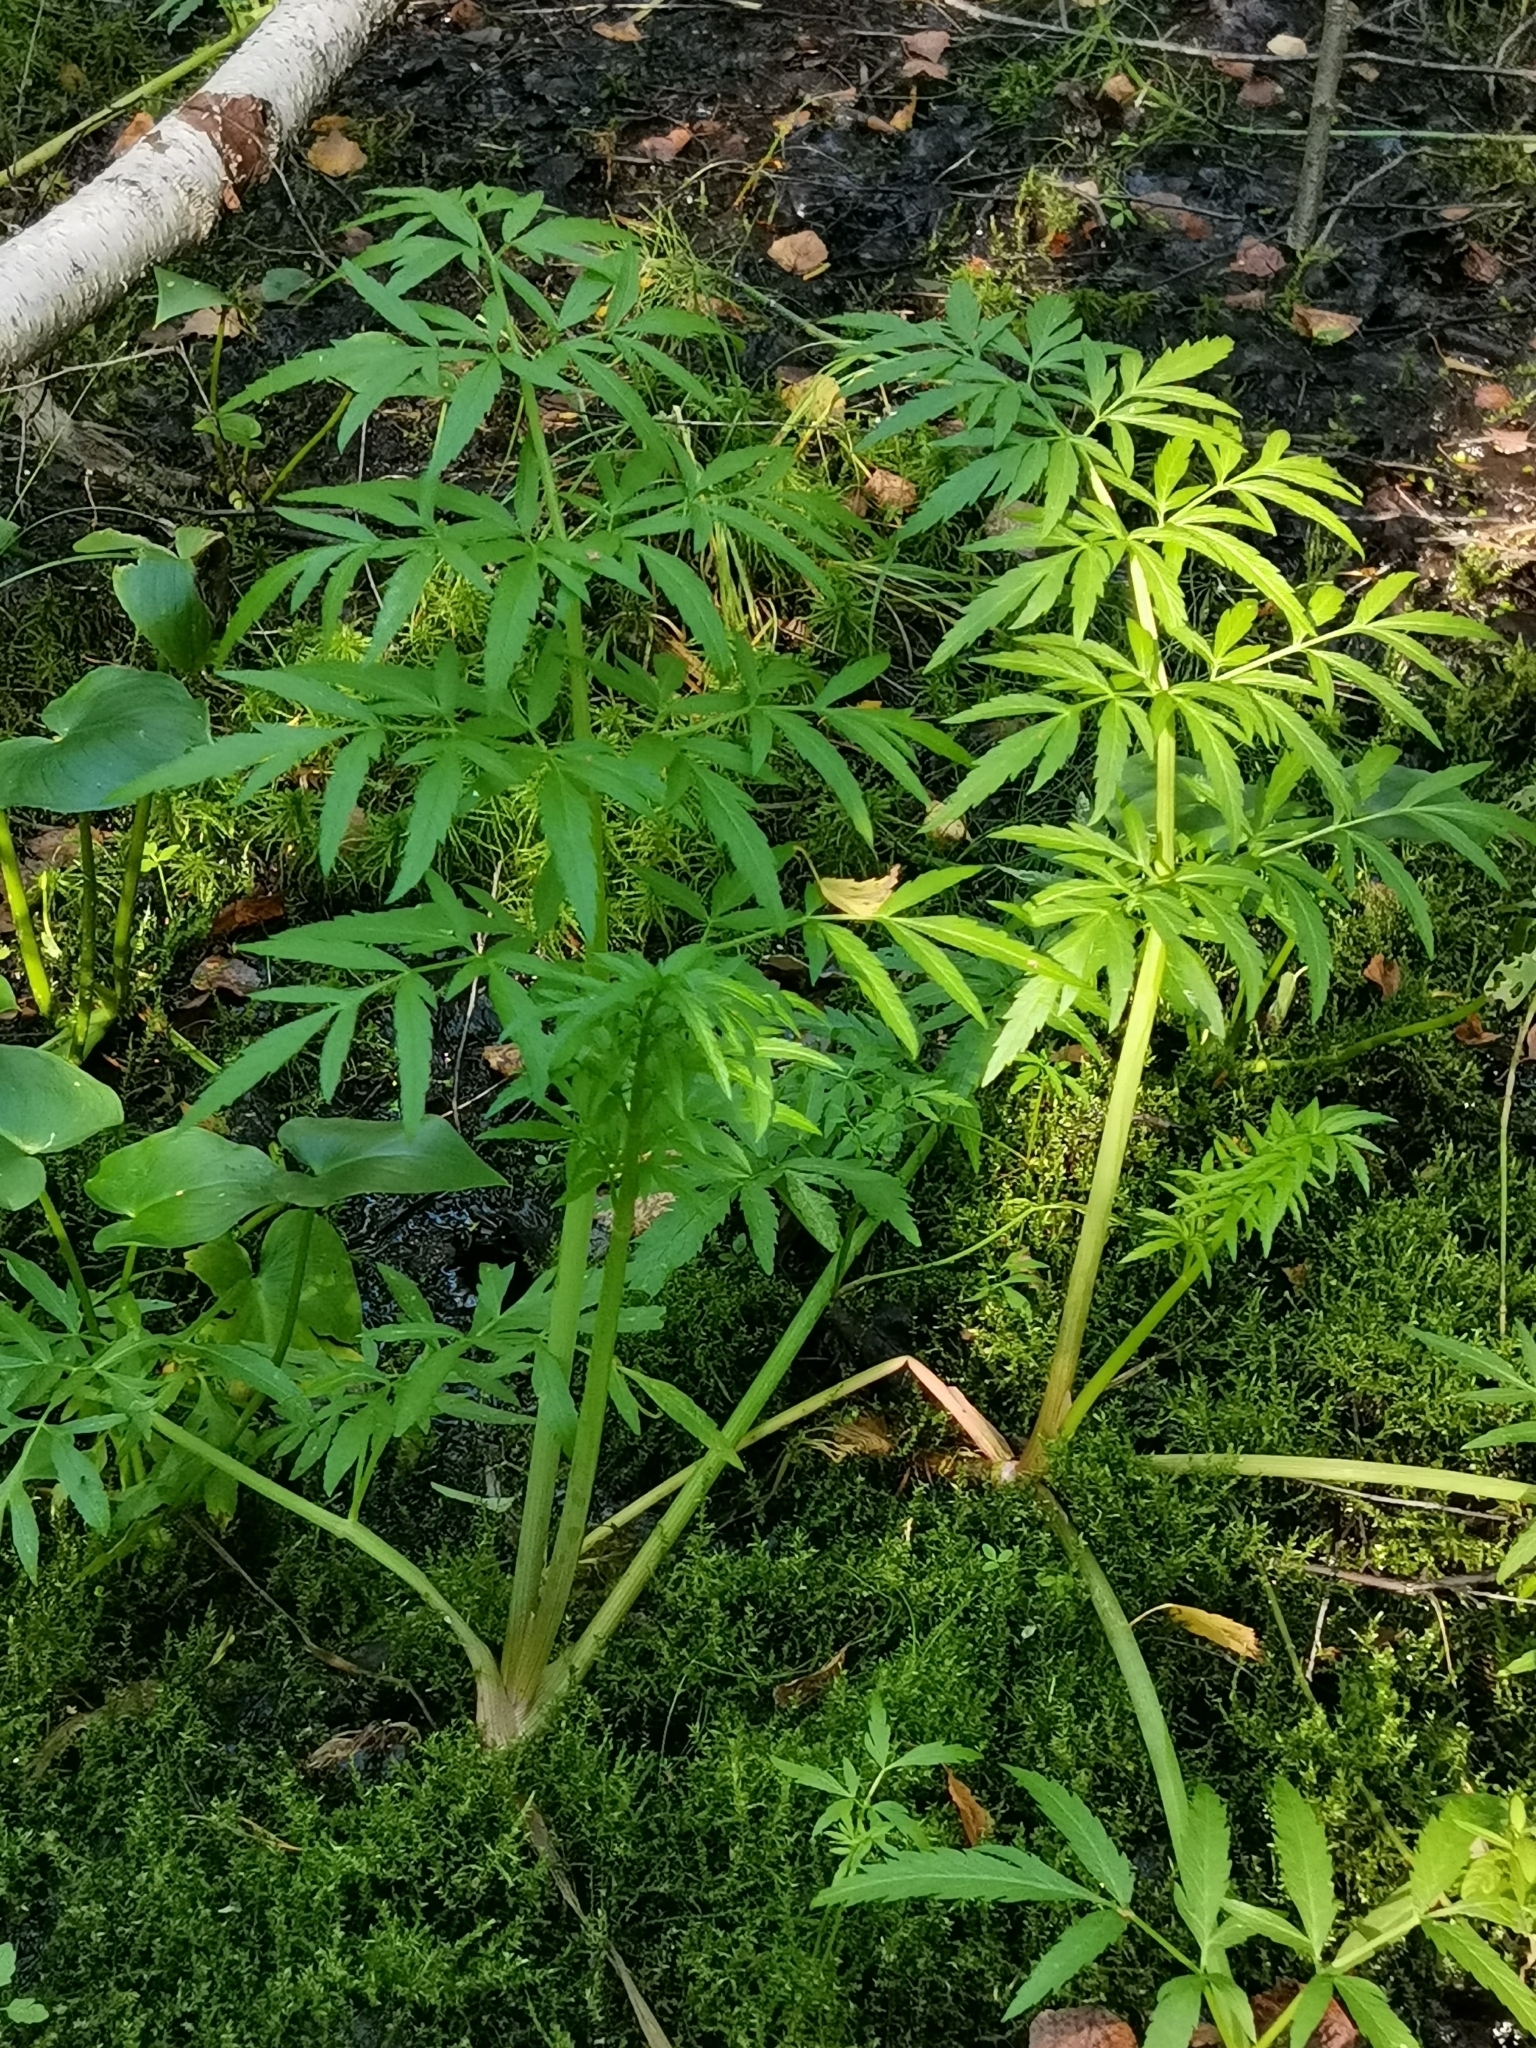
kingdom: Plantae
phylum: Tracheophyta
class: Magnoliopsida
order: Apiales
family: Apiaceae
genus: Cicuta
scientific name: Cicuta virosa
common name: Cowbane
